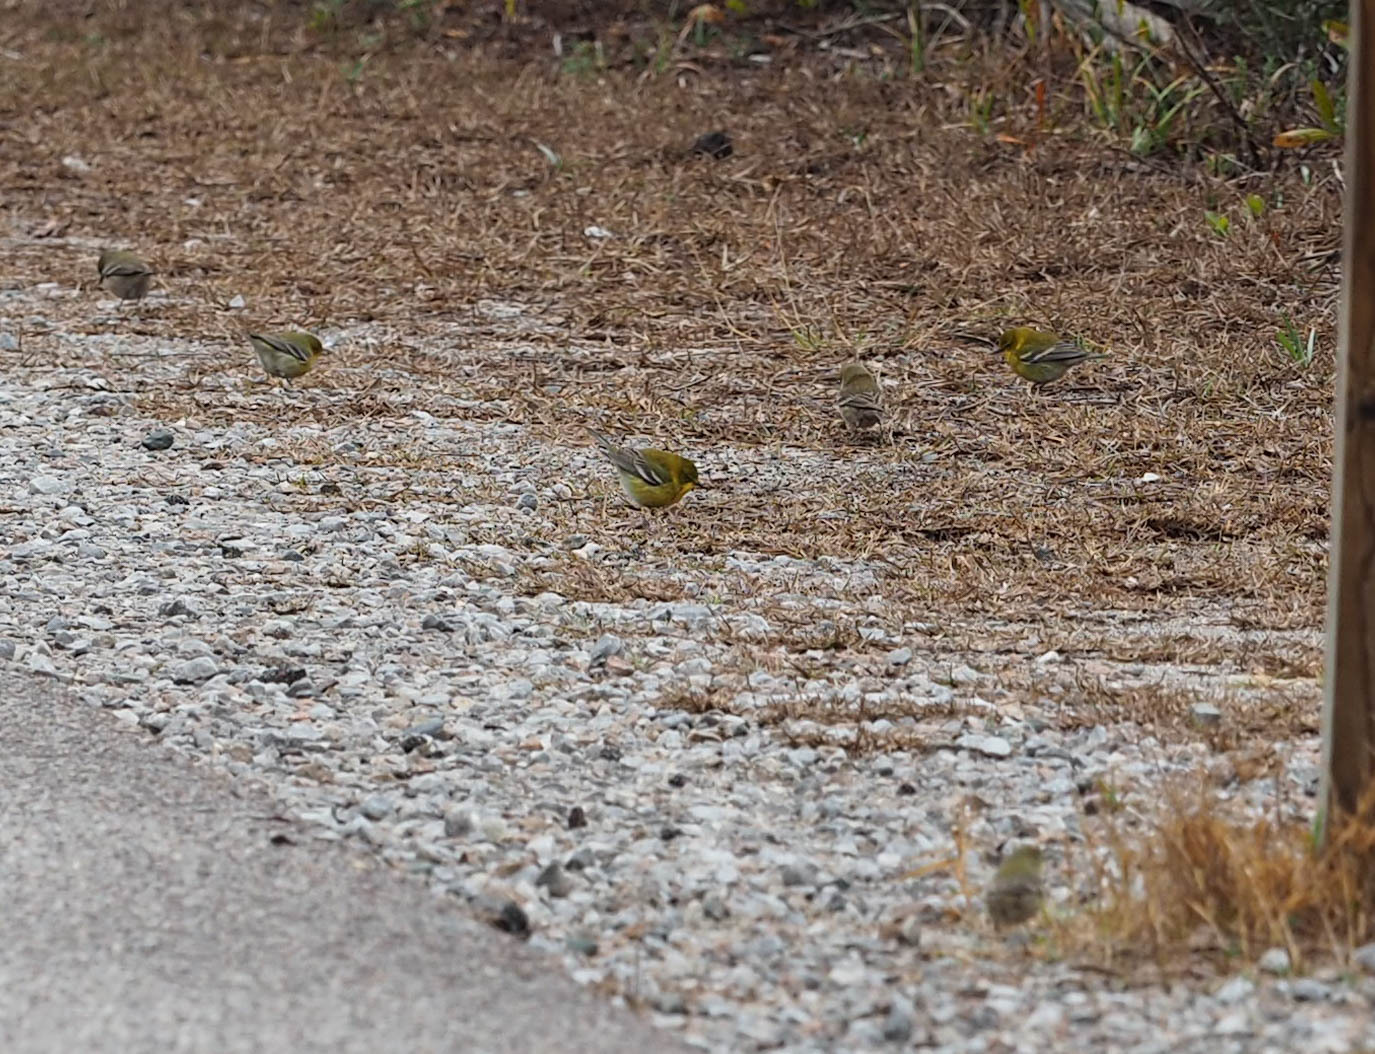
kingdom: Animalia
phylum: Chordata
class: Aves
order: Passeriformes
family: Parulidae
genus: Setophaga
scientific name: Setophaga pinus
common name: Pine warbler
